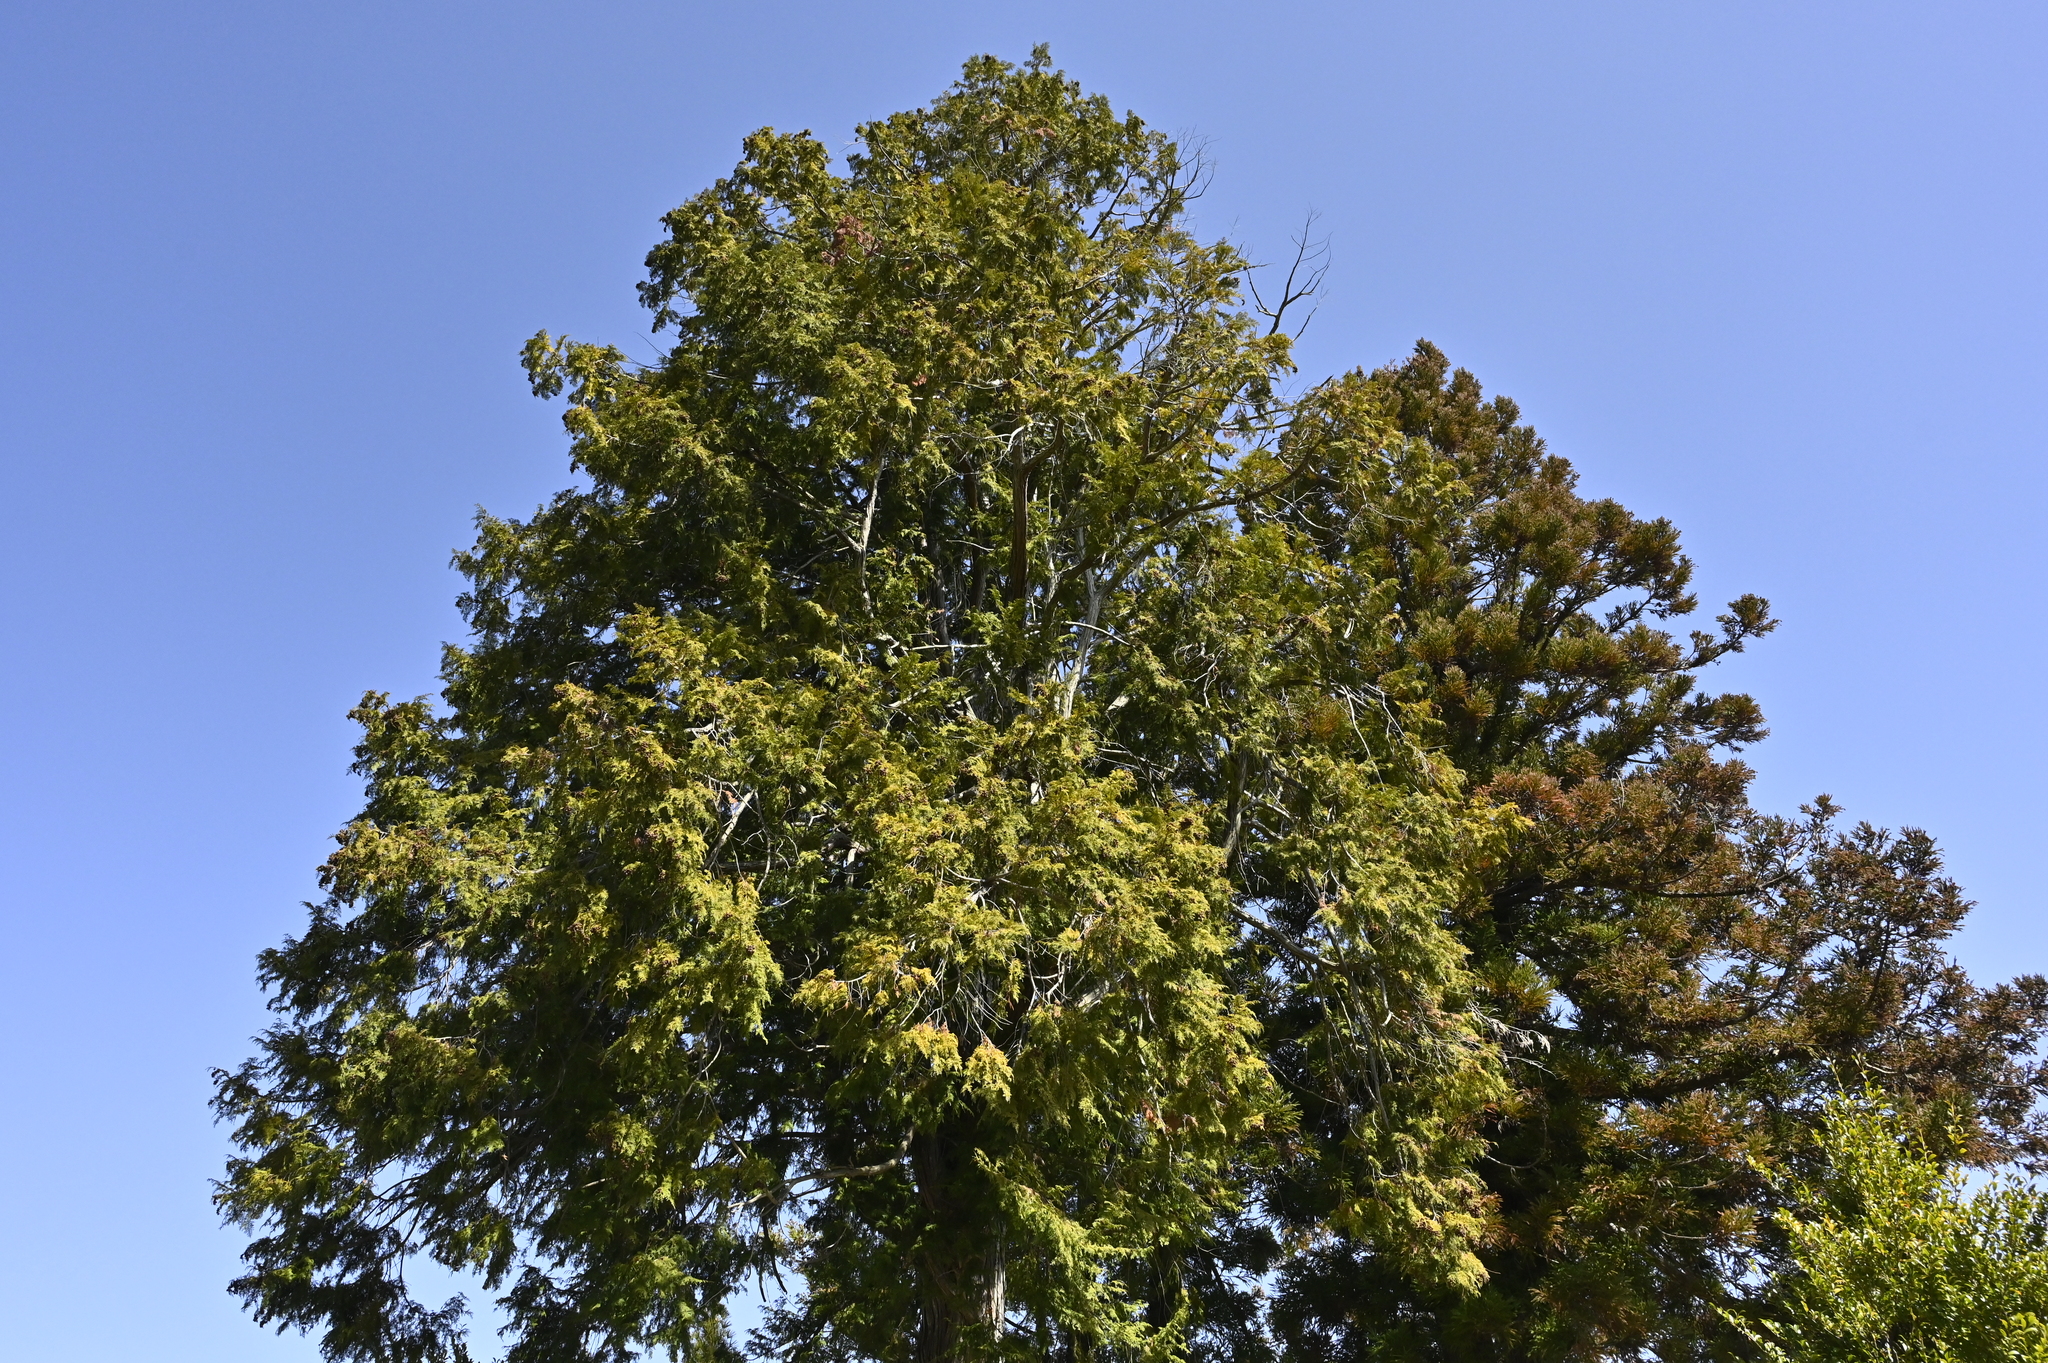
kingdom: Plantae
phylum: Tracheophyta
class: Pinopsida
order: Pinales
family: Cupressaceae
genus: Chamaecyparis
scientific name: Chamaecyparis obtusa
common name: Hinoki false cypress
